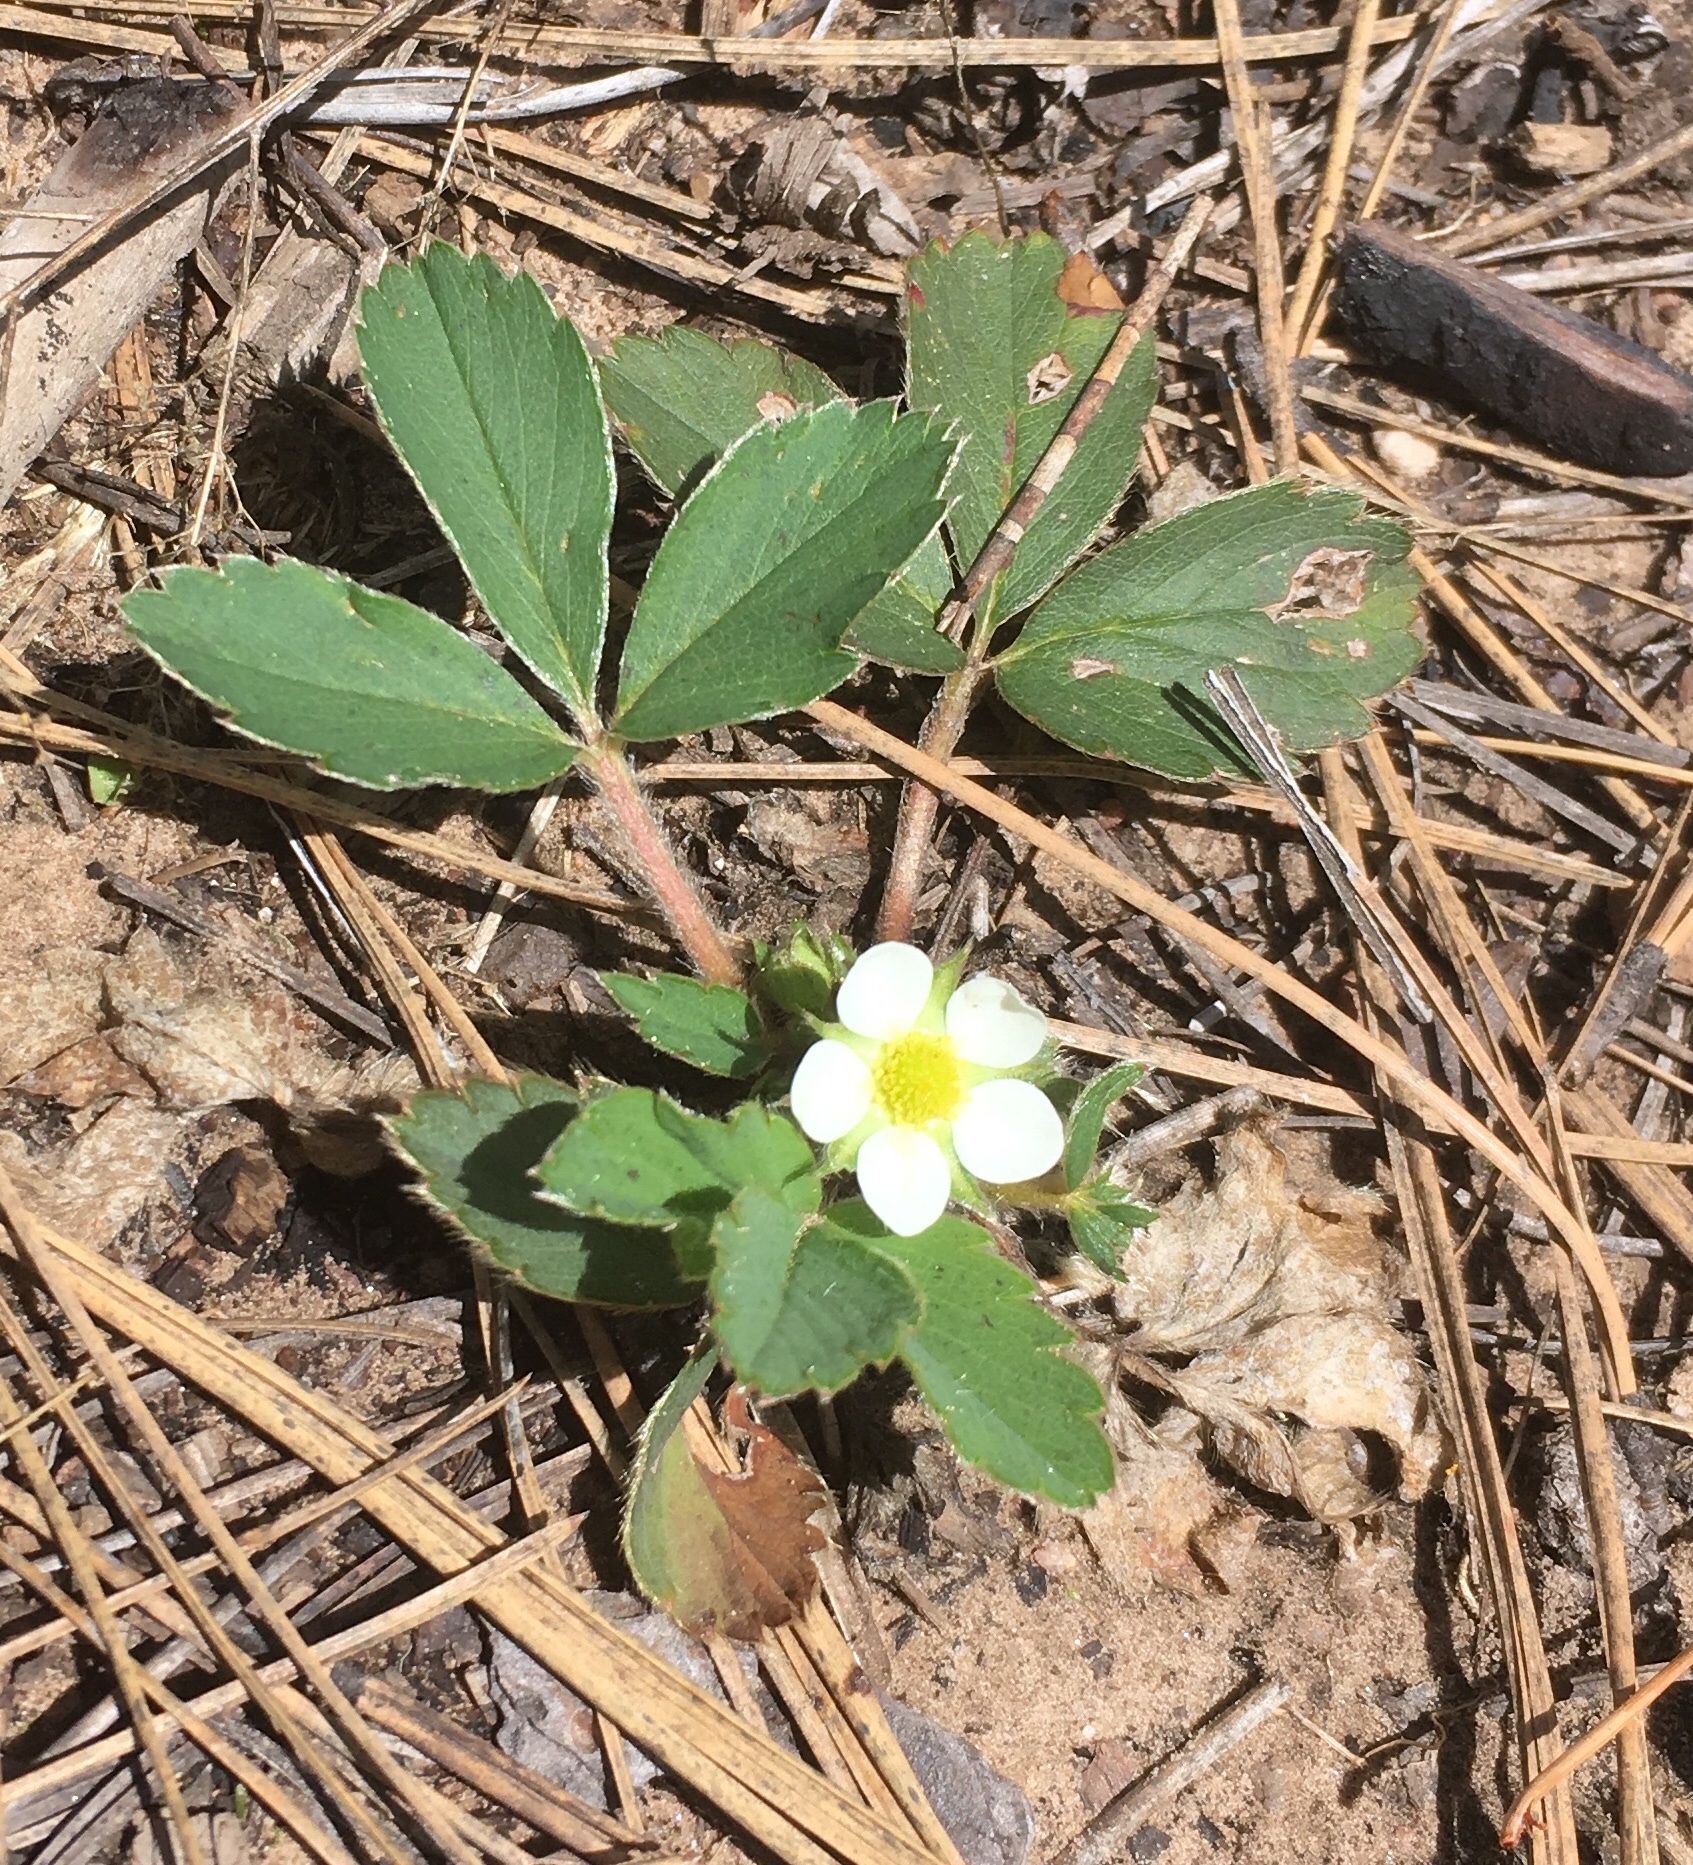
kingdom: Plantae
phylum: Tracheophyta
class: Magnoliopsida
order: Rosales
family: Rosaceae
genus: Fragaria
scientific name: Fragaria virginiana
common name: Thickleaved wild strawberry
